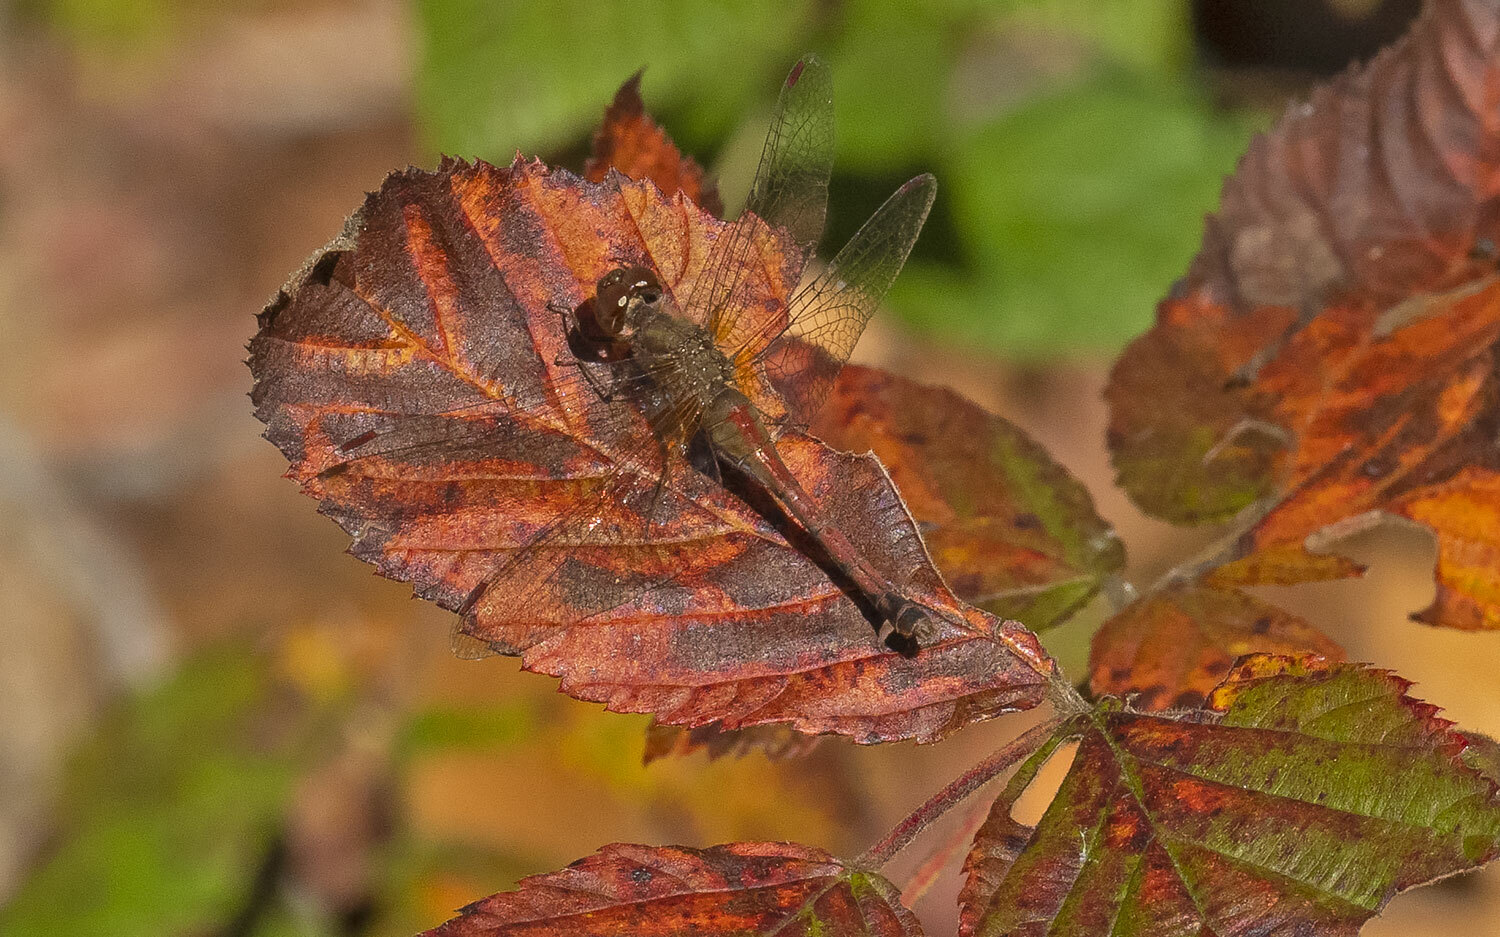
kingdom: Animalia
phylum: Arthropoda
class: Insecta
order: Odonata
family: Libellulidae
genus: Sympetrum
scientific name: Sympetrum vicinum
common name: Autumn meadowhawk
